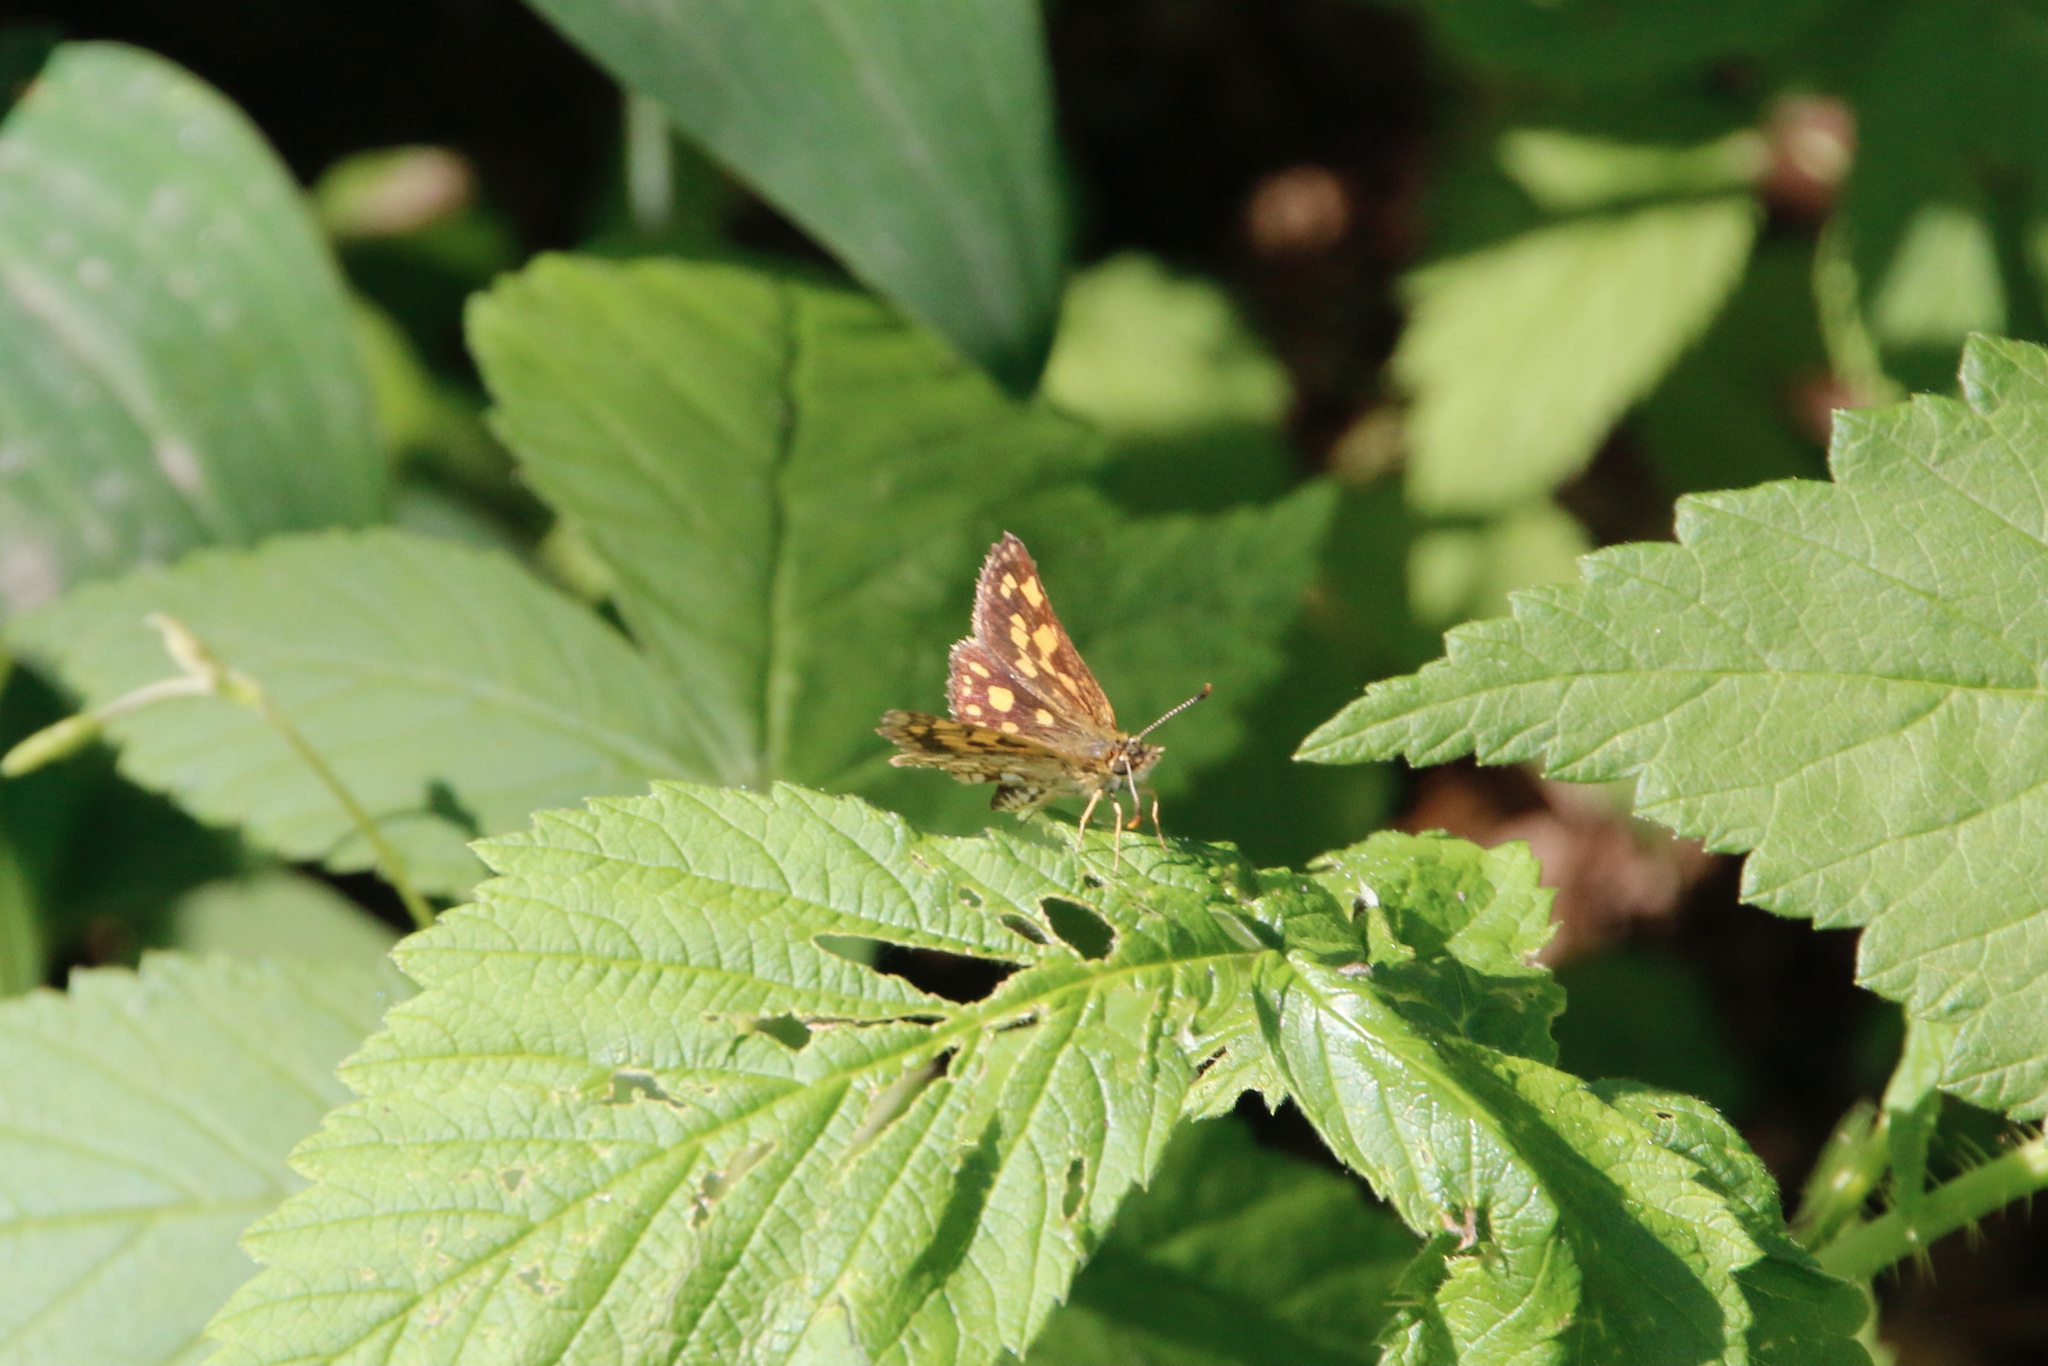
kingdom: Animalia
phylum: Arthropoda
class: Insecta
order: Lepidoptera
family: Hesperiidae
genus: Carterocephalus
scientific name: Carterocephalus mandan
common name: Arctic skipperling
